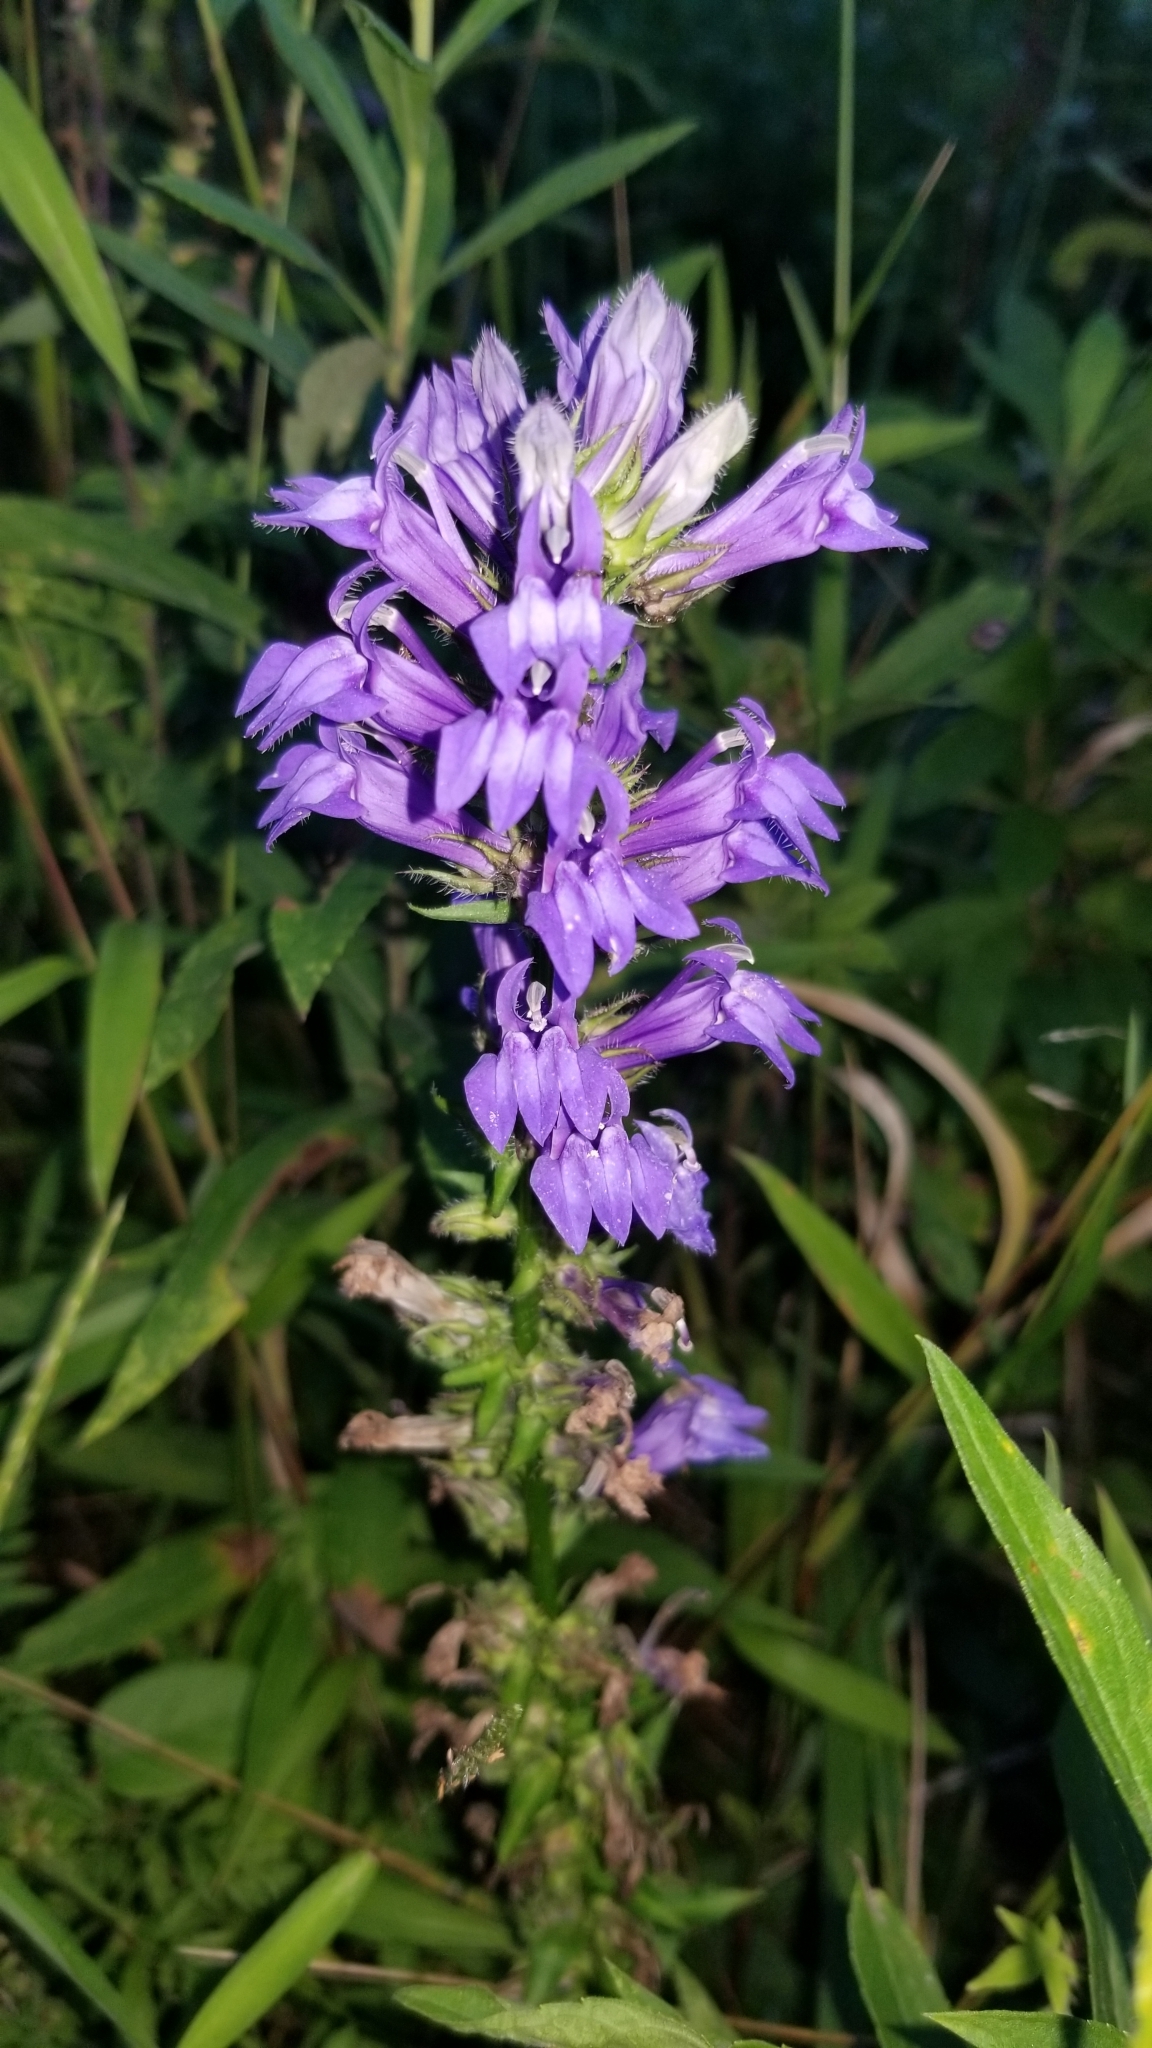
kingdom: Plantae
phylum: Tracheophyta
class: Magnoliopsida
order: Asterales
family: Campanulaceae
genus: Lobelia
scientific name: Lobelia siphilitica
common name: Great lobelia
